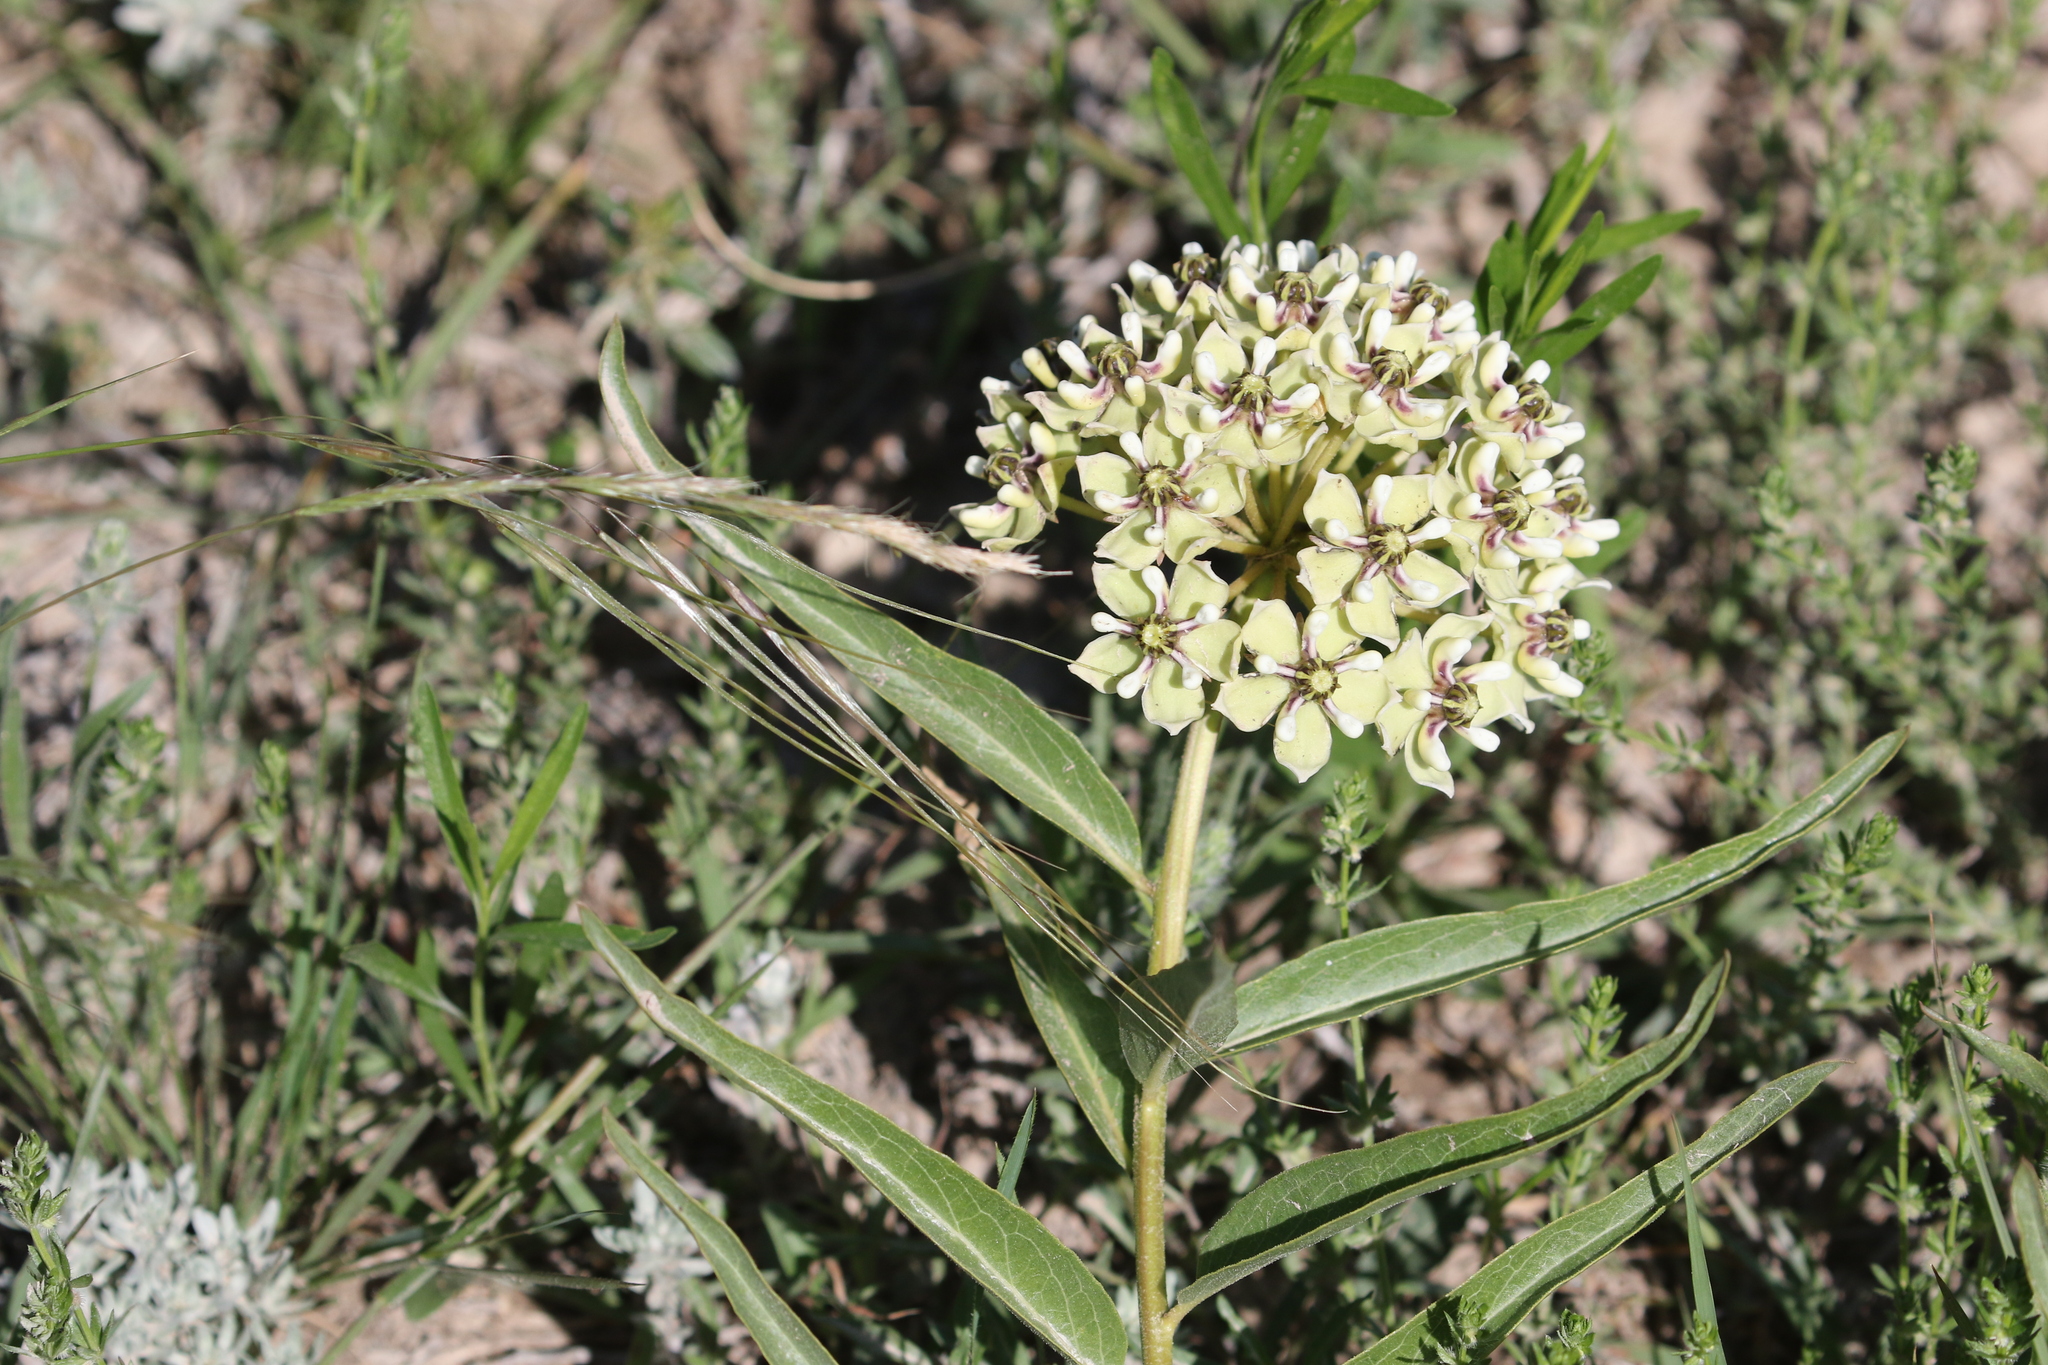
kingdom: Plantae
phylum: Tracheophyta
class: Magnoliopsida
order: Gentianales
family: Apocynaceae
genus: Asclepias
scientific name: Asclepias asperula
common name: Antelope horns
